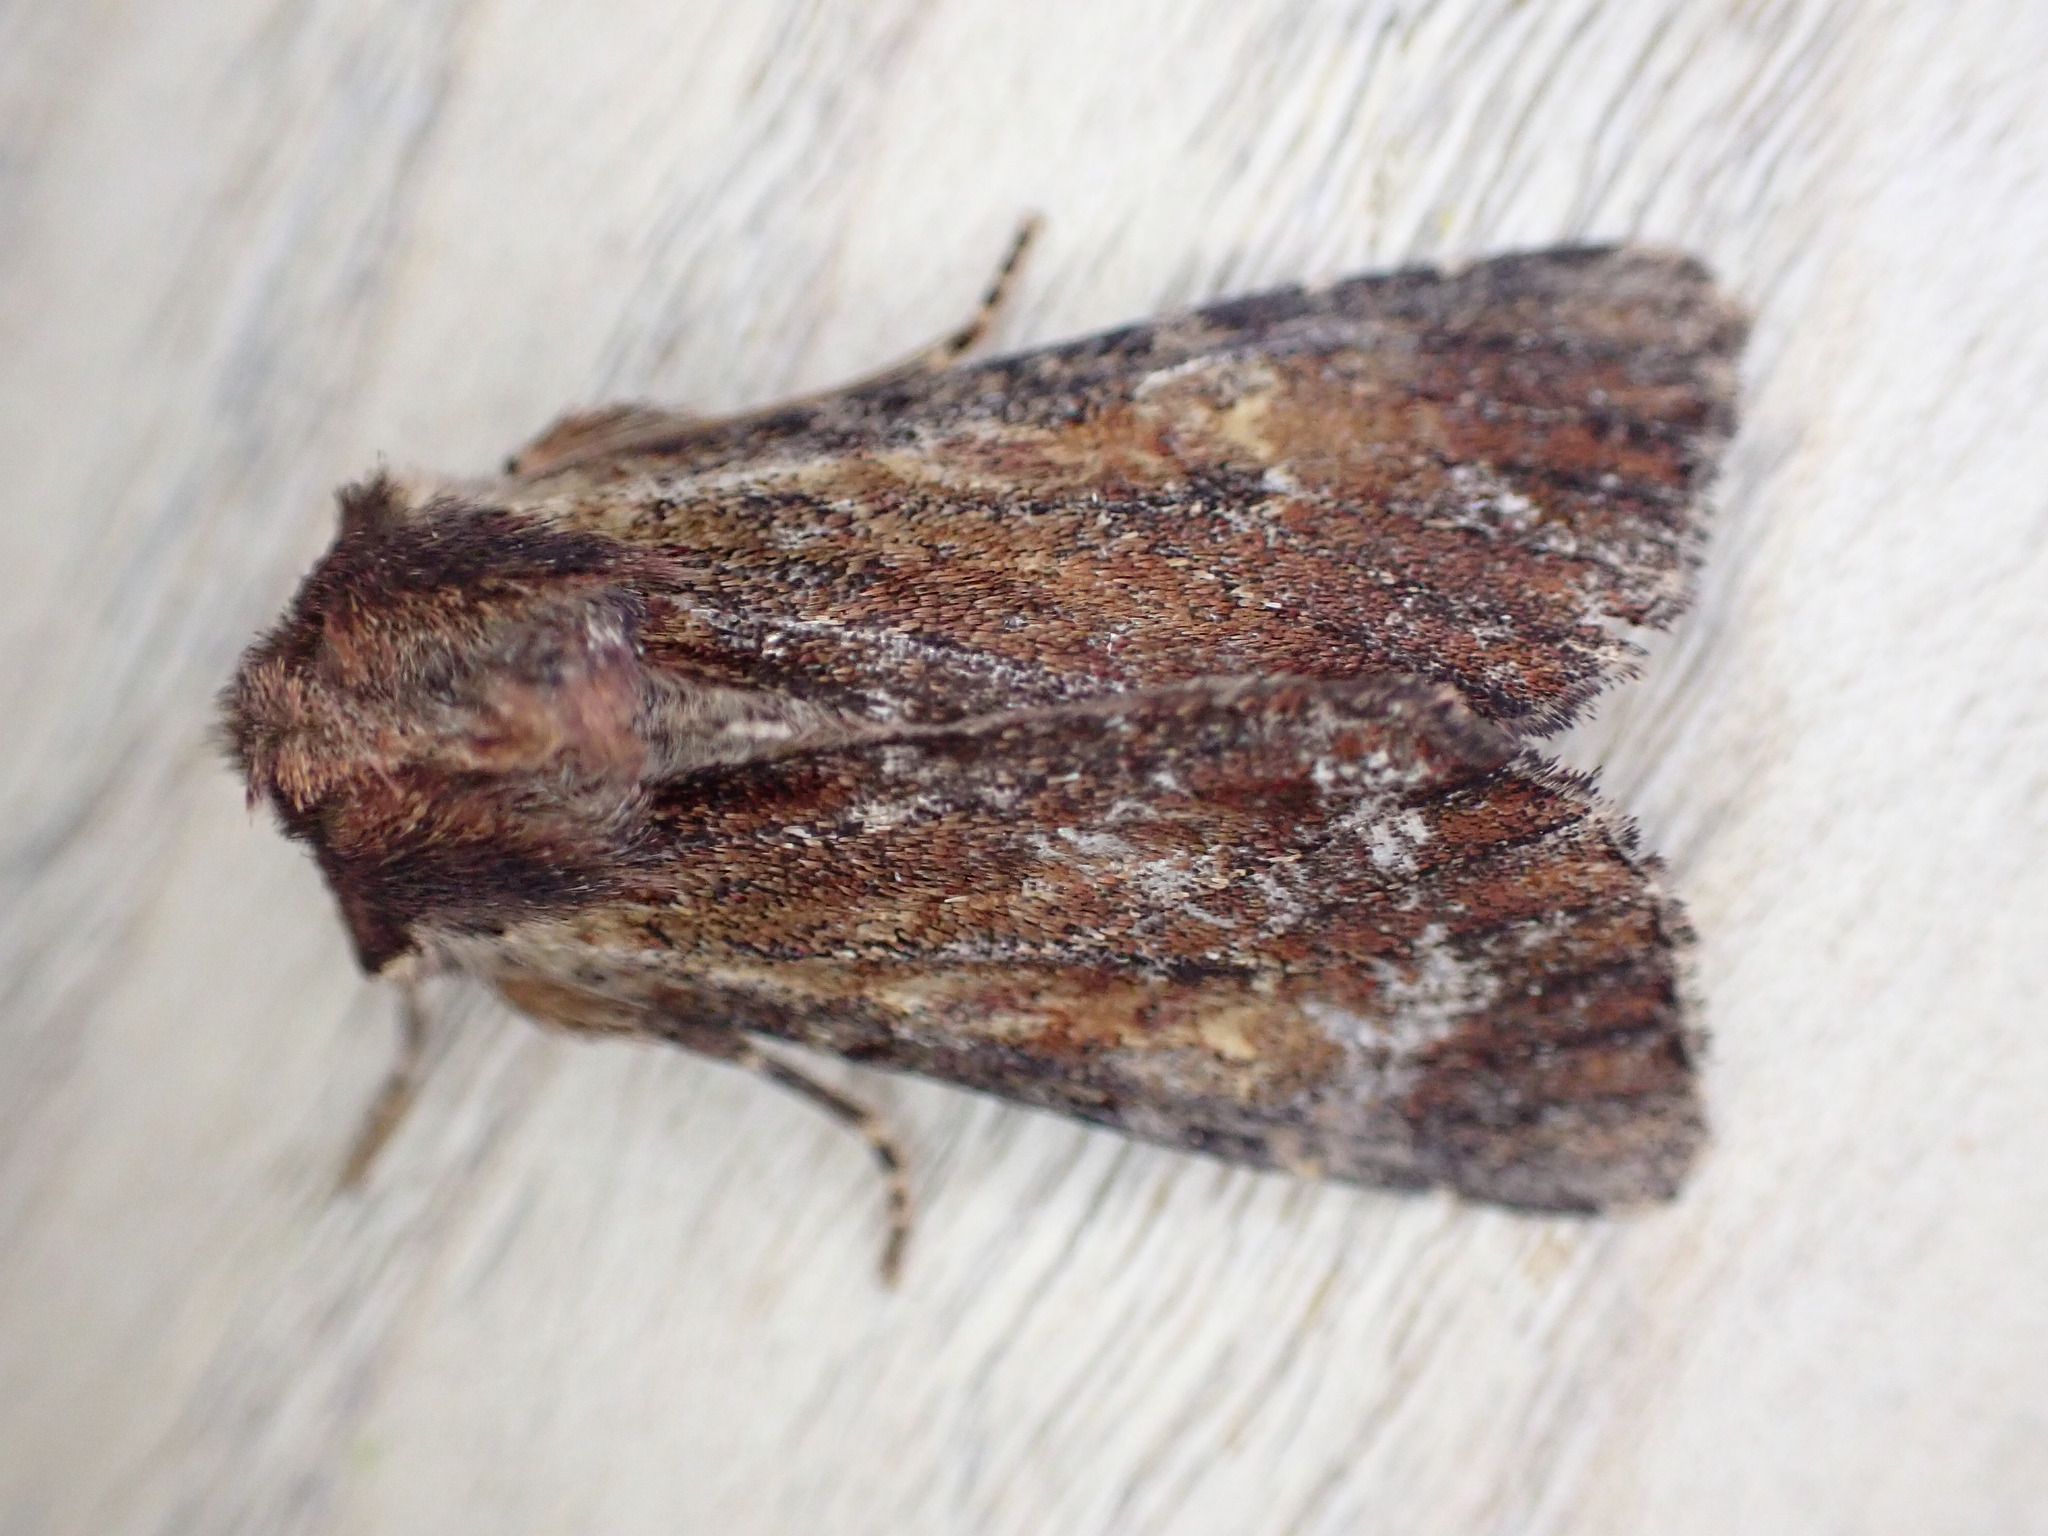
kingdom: Animalia
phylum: Arthropoda
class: Insecta
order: Lepidoptera
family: Noctuidae
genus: Apamea
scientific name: Apamea crenata
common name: Clouded-bordered brindle
